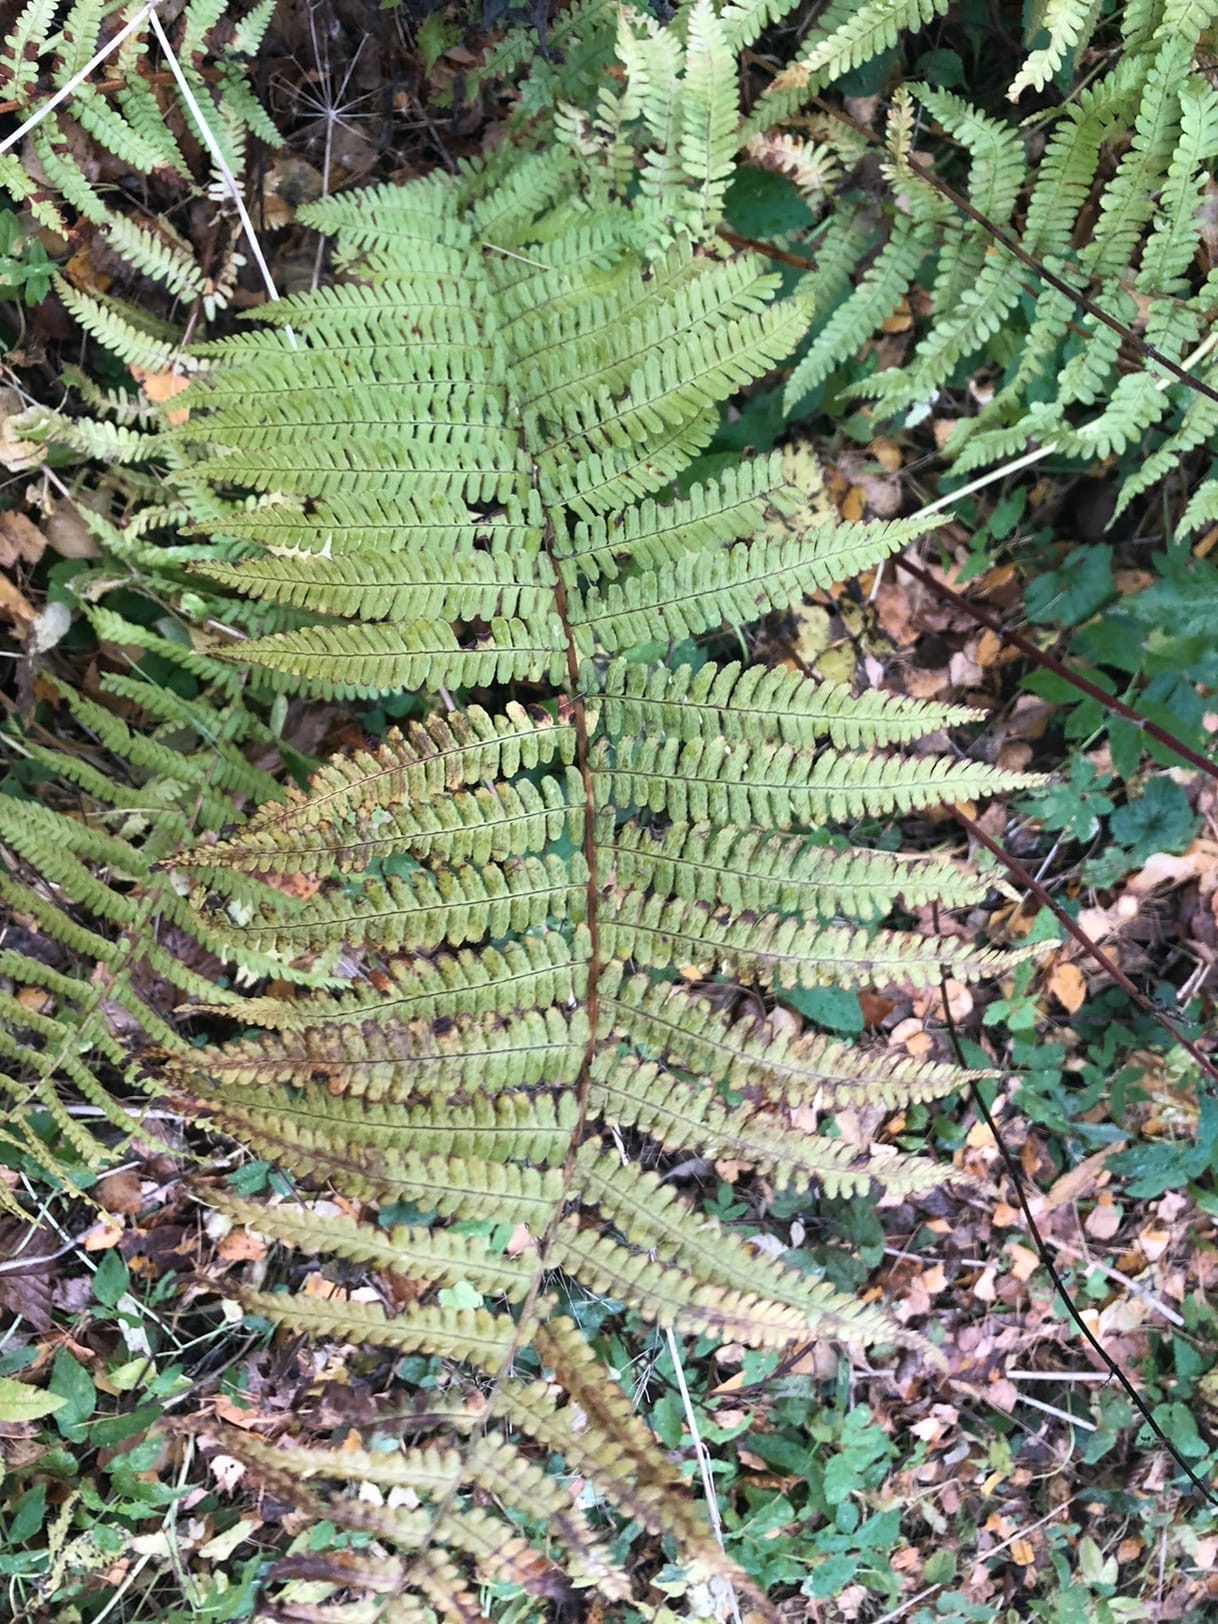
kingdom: Plantae
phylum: Tracheophyta
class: Polypodiopsida
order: Polypodiales
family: Dryopteridaceae
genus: Dryopteris
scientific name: Dryopteris filix-mas
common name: Male fern
